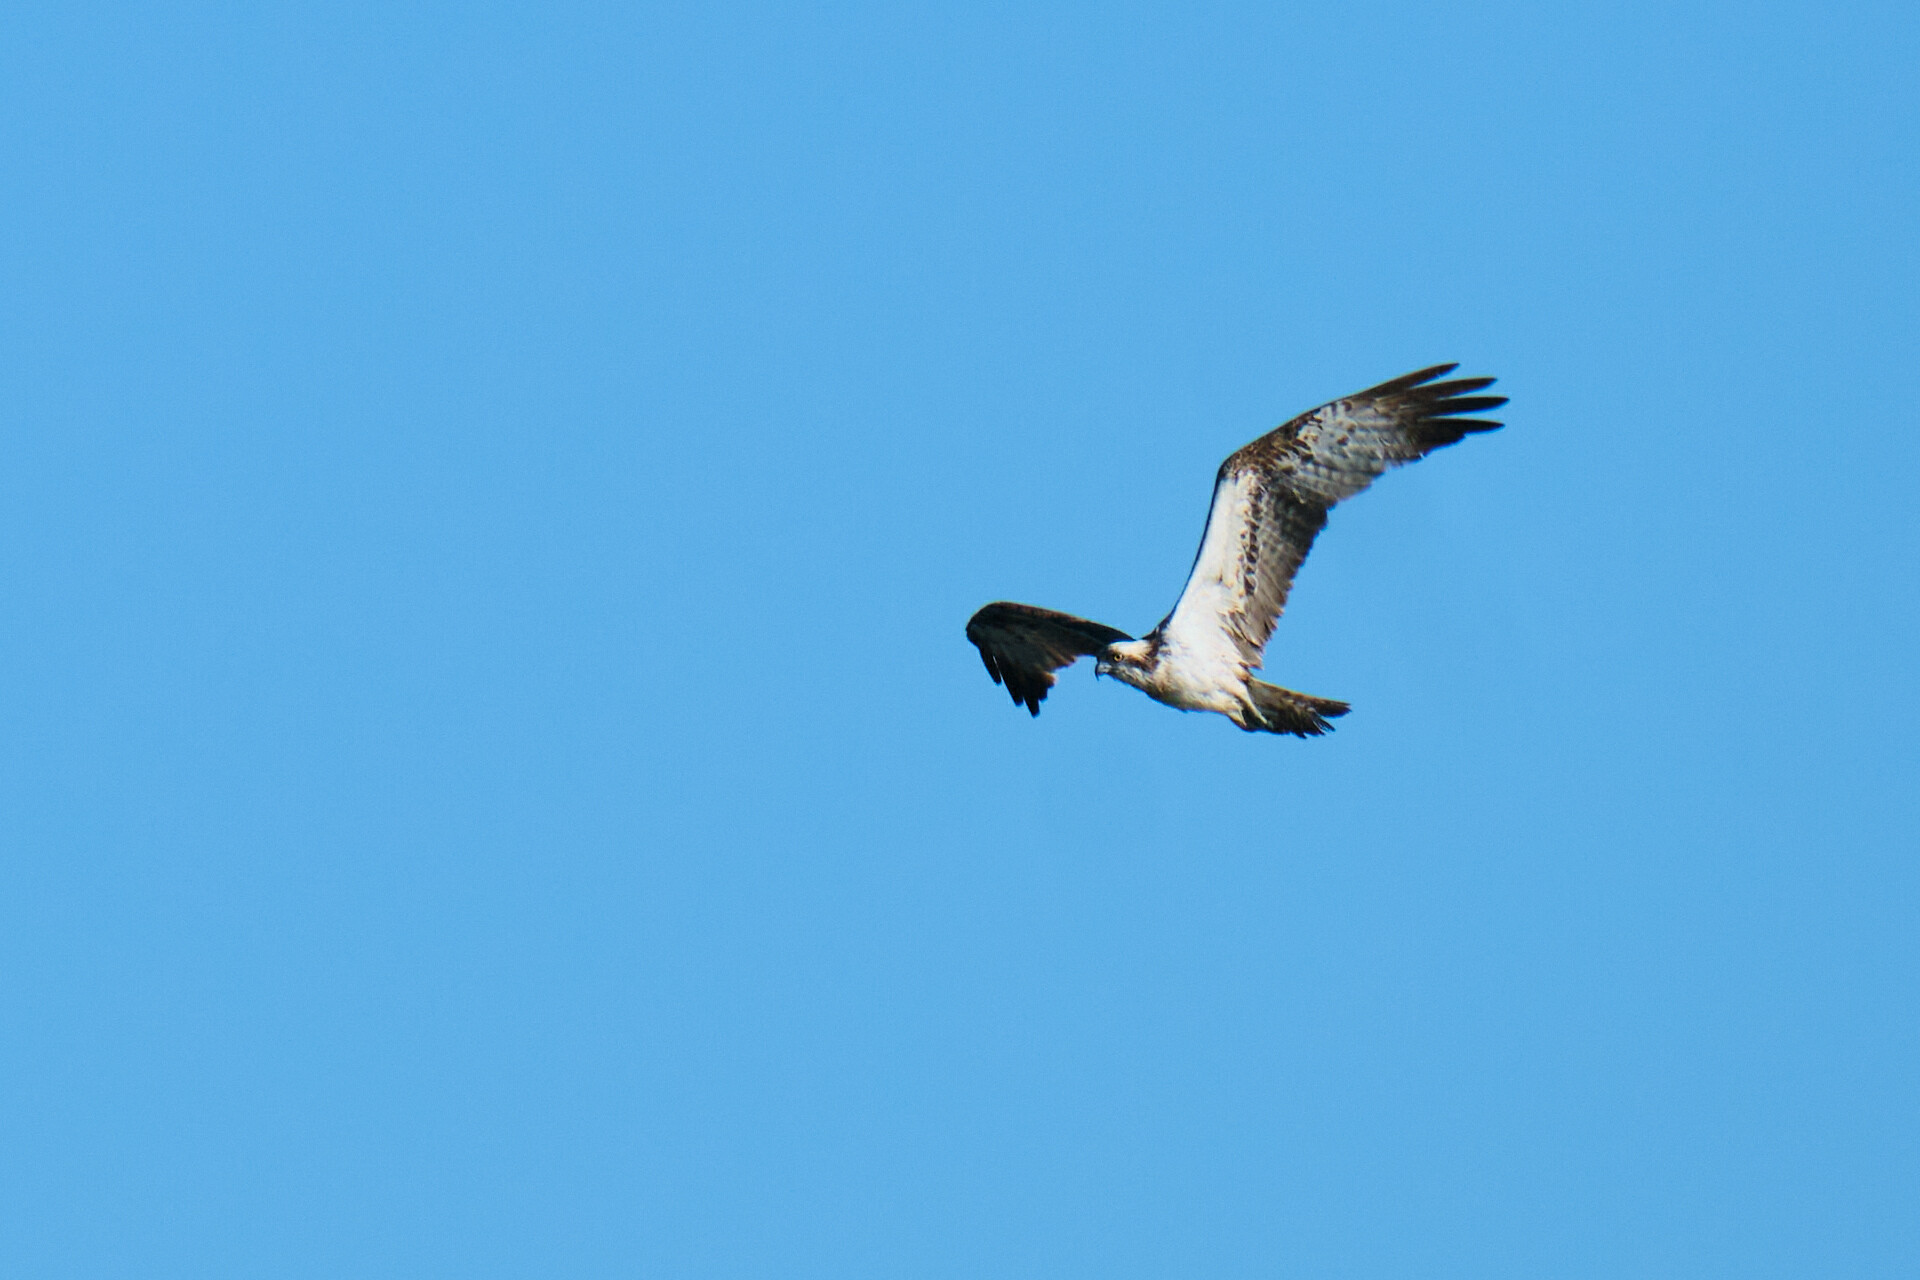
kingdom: Animalia
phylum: Chordata
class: Aves
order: Accipitriformes
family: Pandionidae
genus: Pandion
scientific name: Pandion haliaetus
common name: Osprey
